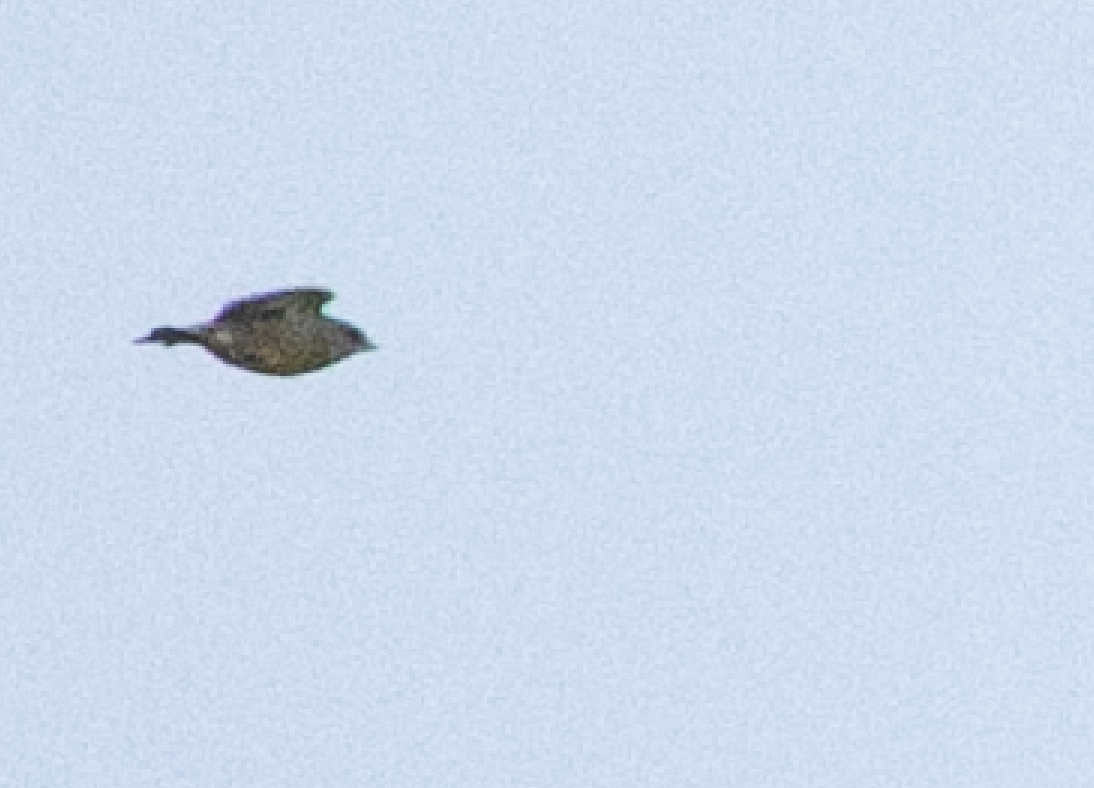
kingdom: Plantae
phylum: Tracheophyta
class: Liliopsida
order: Poales
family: Poaceae
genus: Chloris
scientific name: Chloris chloris
